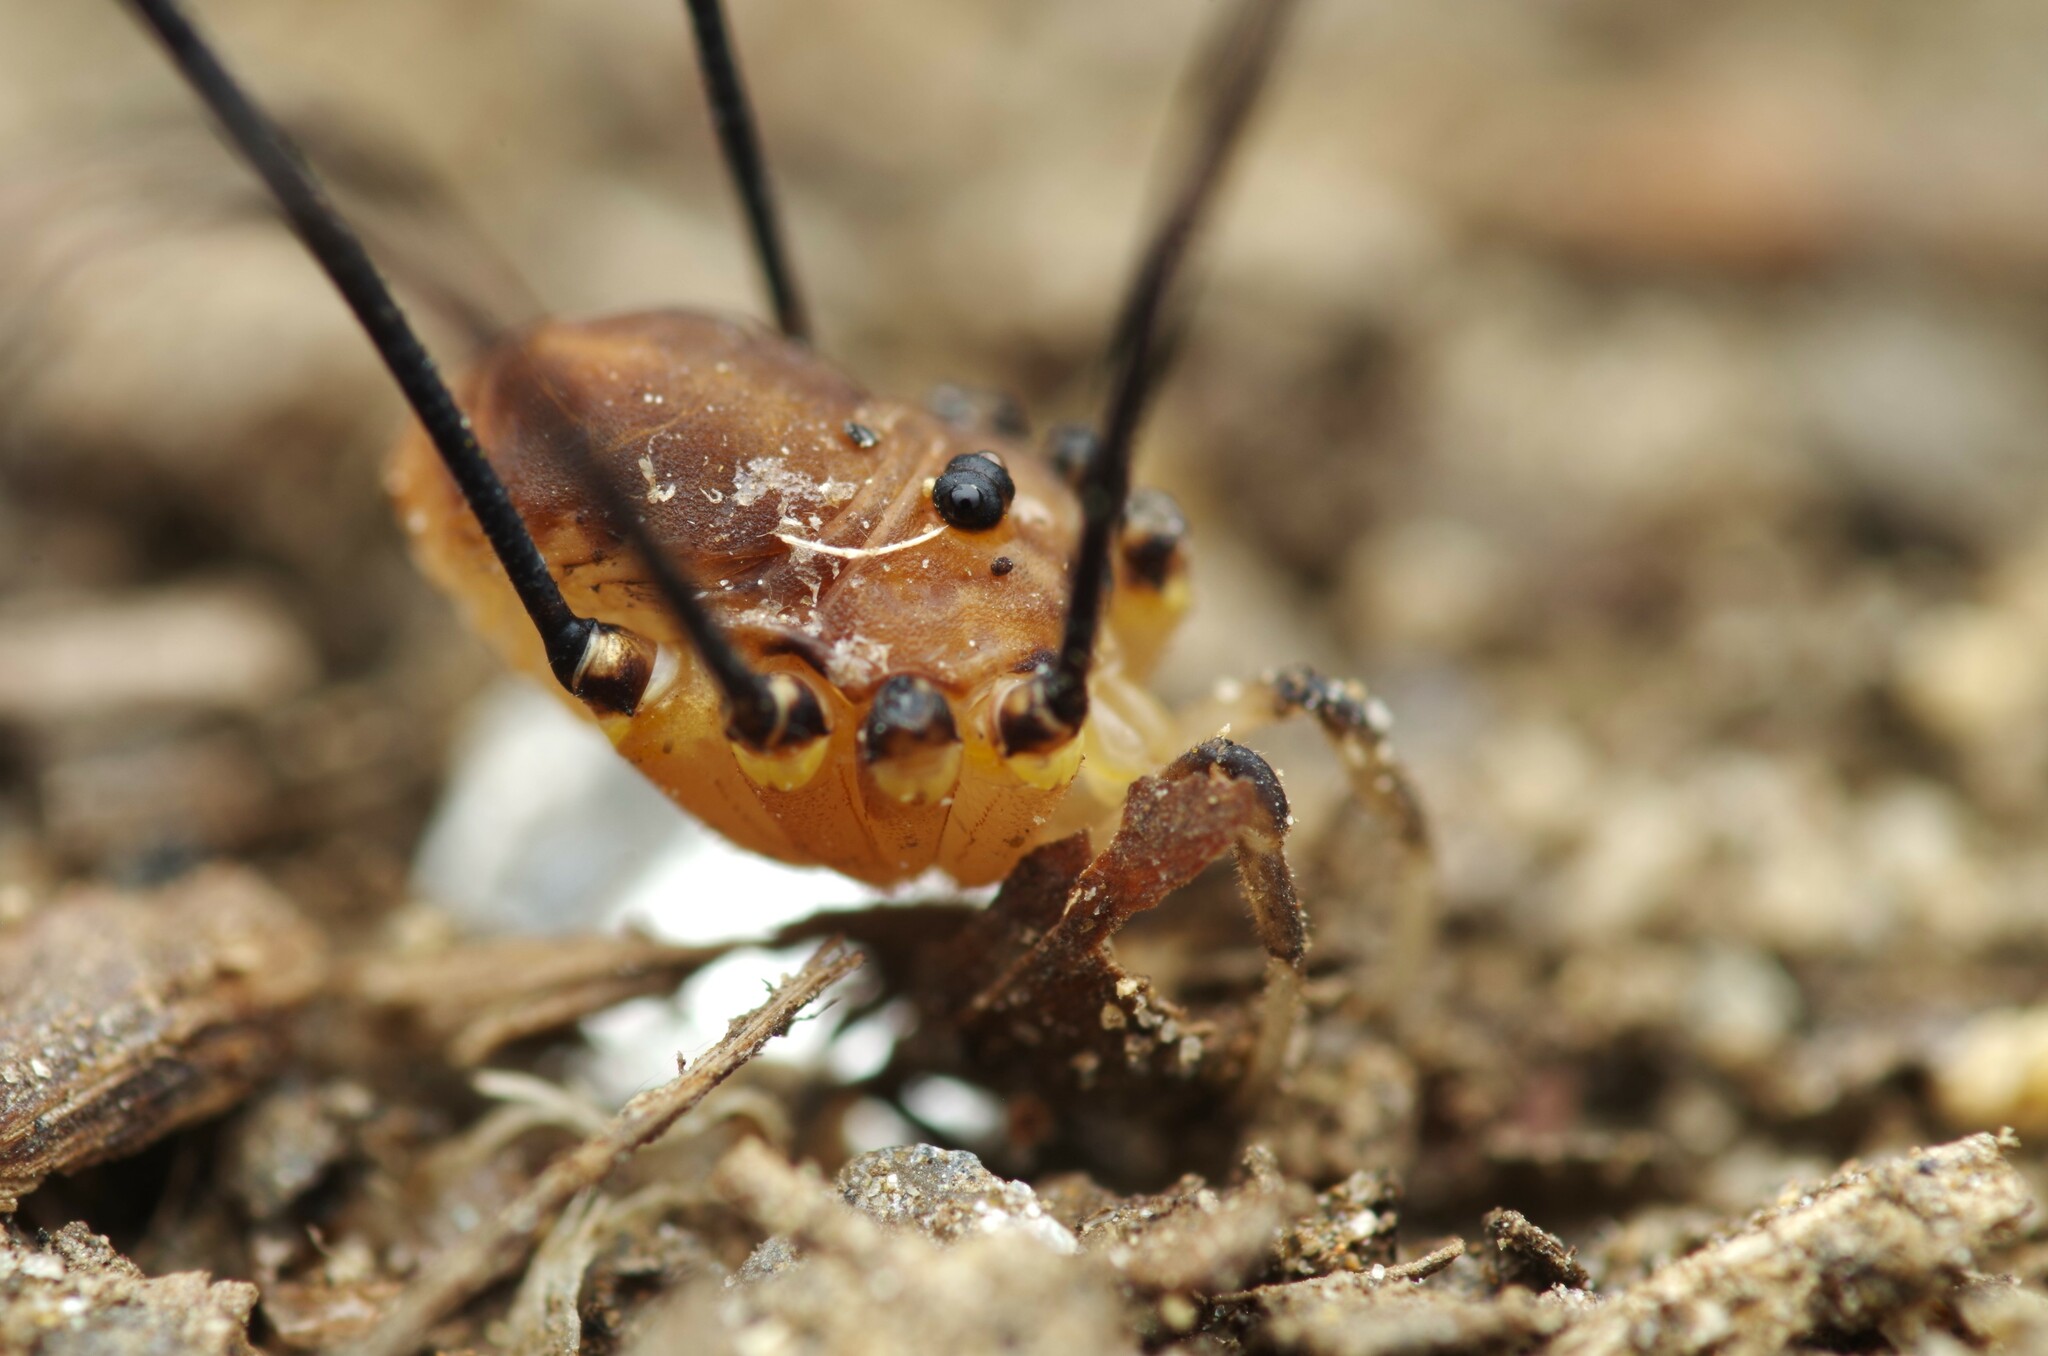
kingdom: Animalia
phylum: Arthropoda
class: Arachnida
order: Opiliones
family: Sclerosomatidae
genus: Leiobunum
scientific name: Leiobunum rotundum
